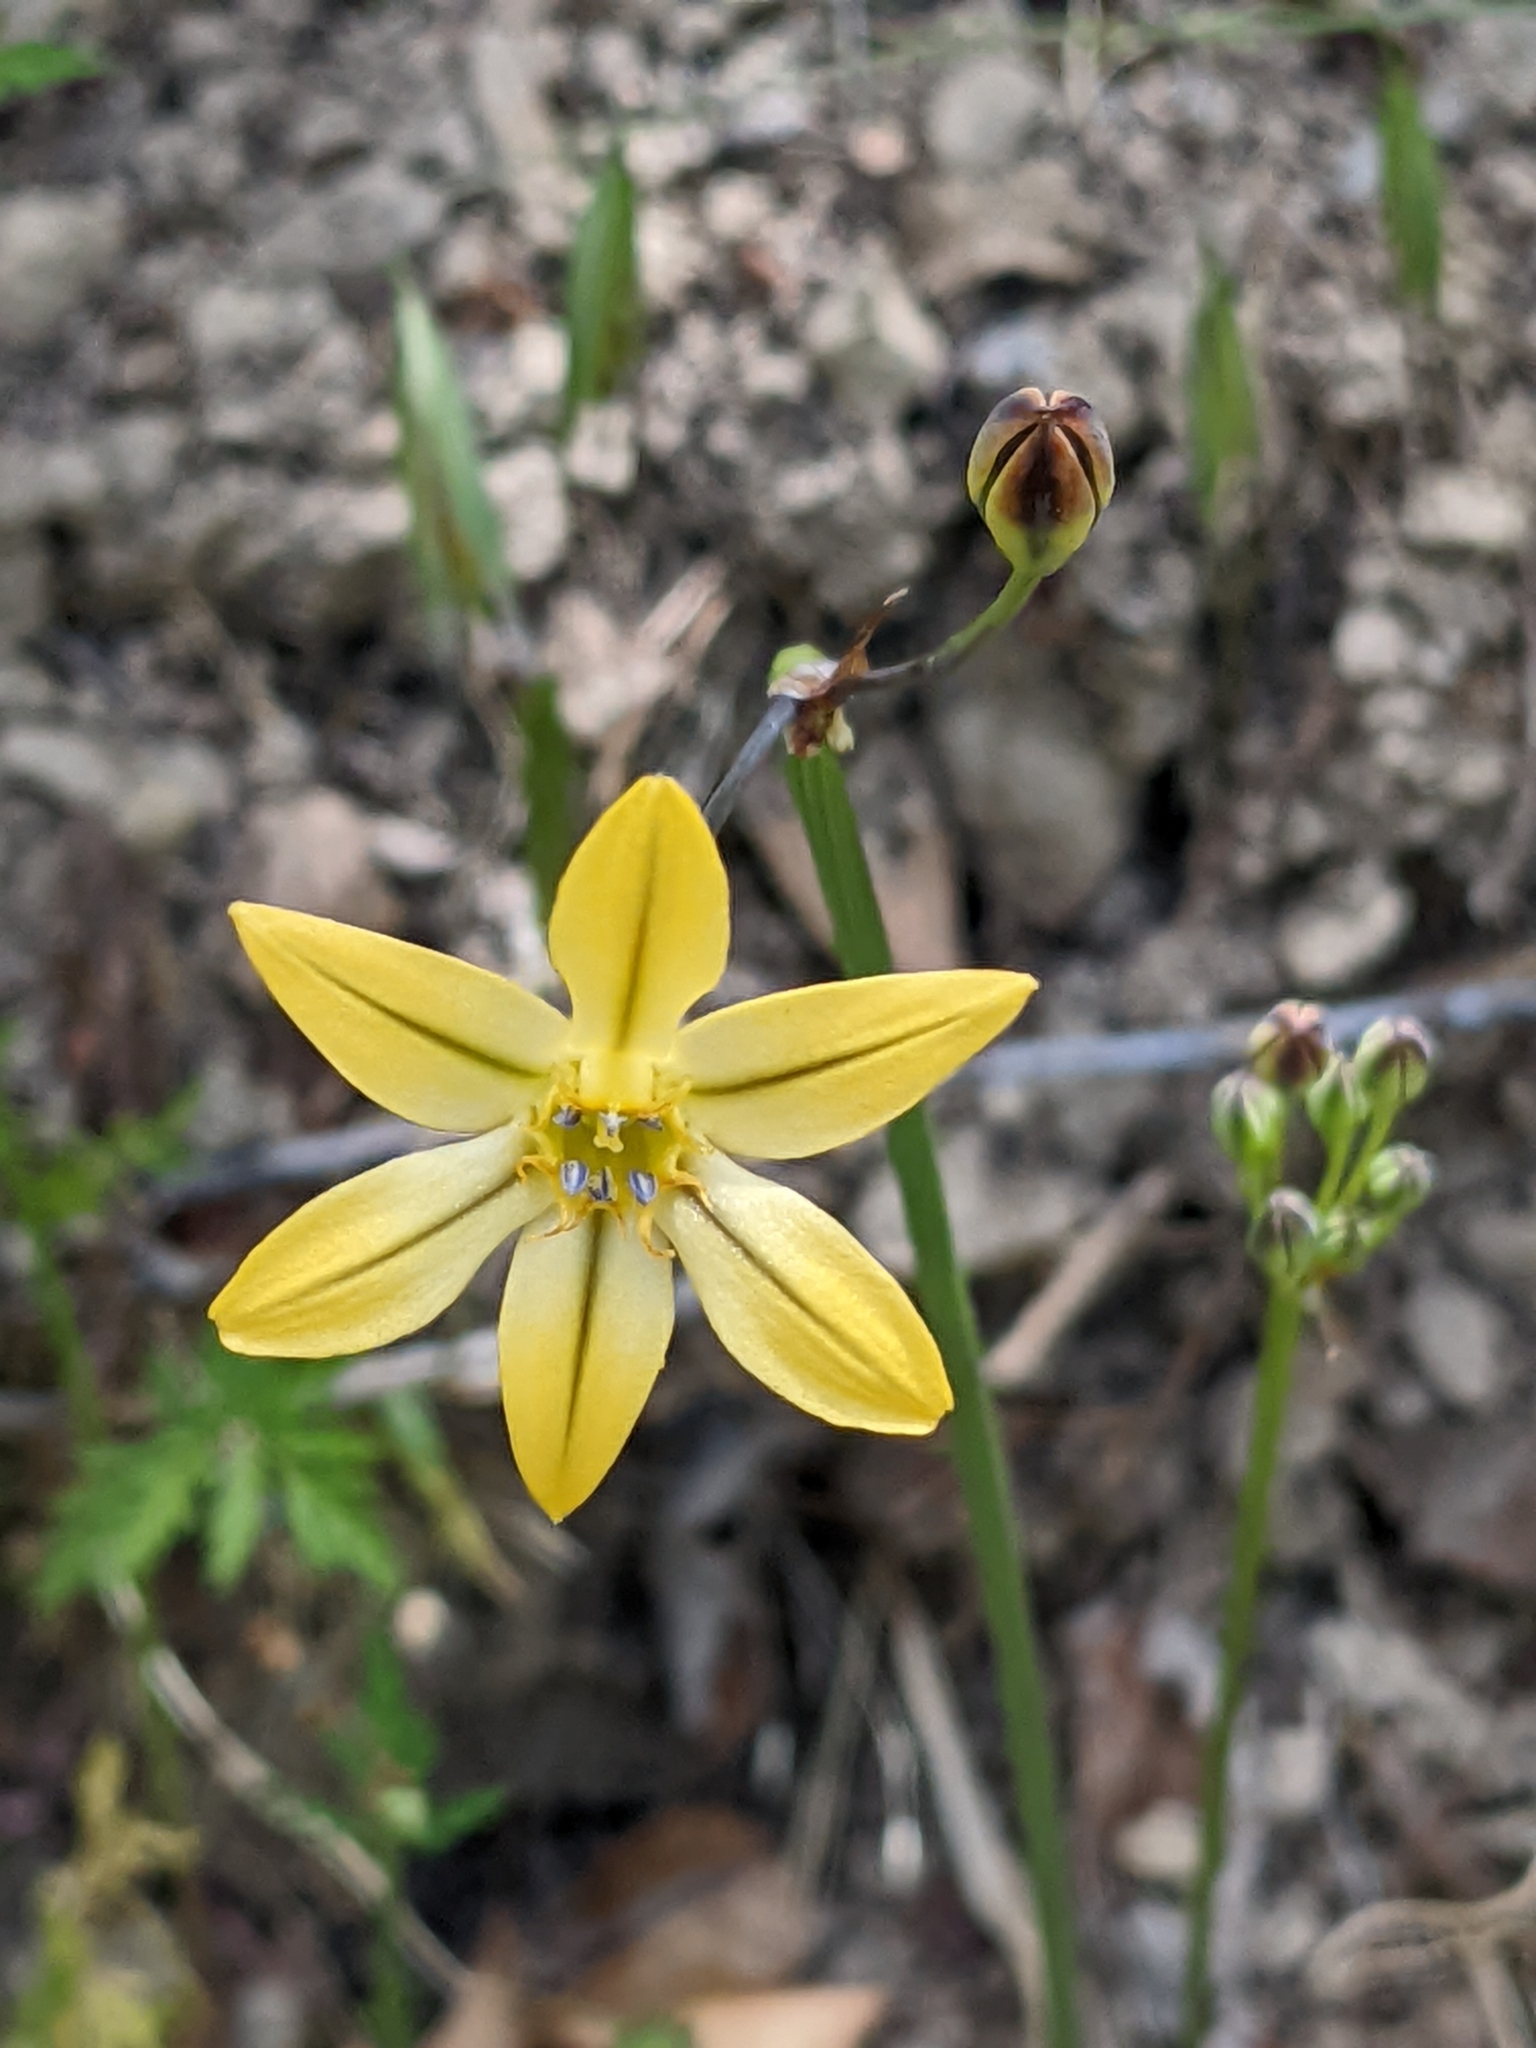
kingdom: Plantae
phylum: Tracheophyta
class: Liliopsida
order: Asparagales
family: Asparagaceae
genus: Triteleia
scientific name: Triteleia ixioides
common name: Yellow-brodiaea
